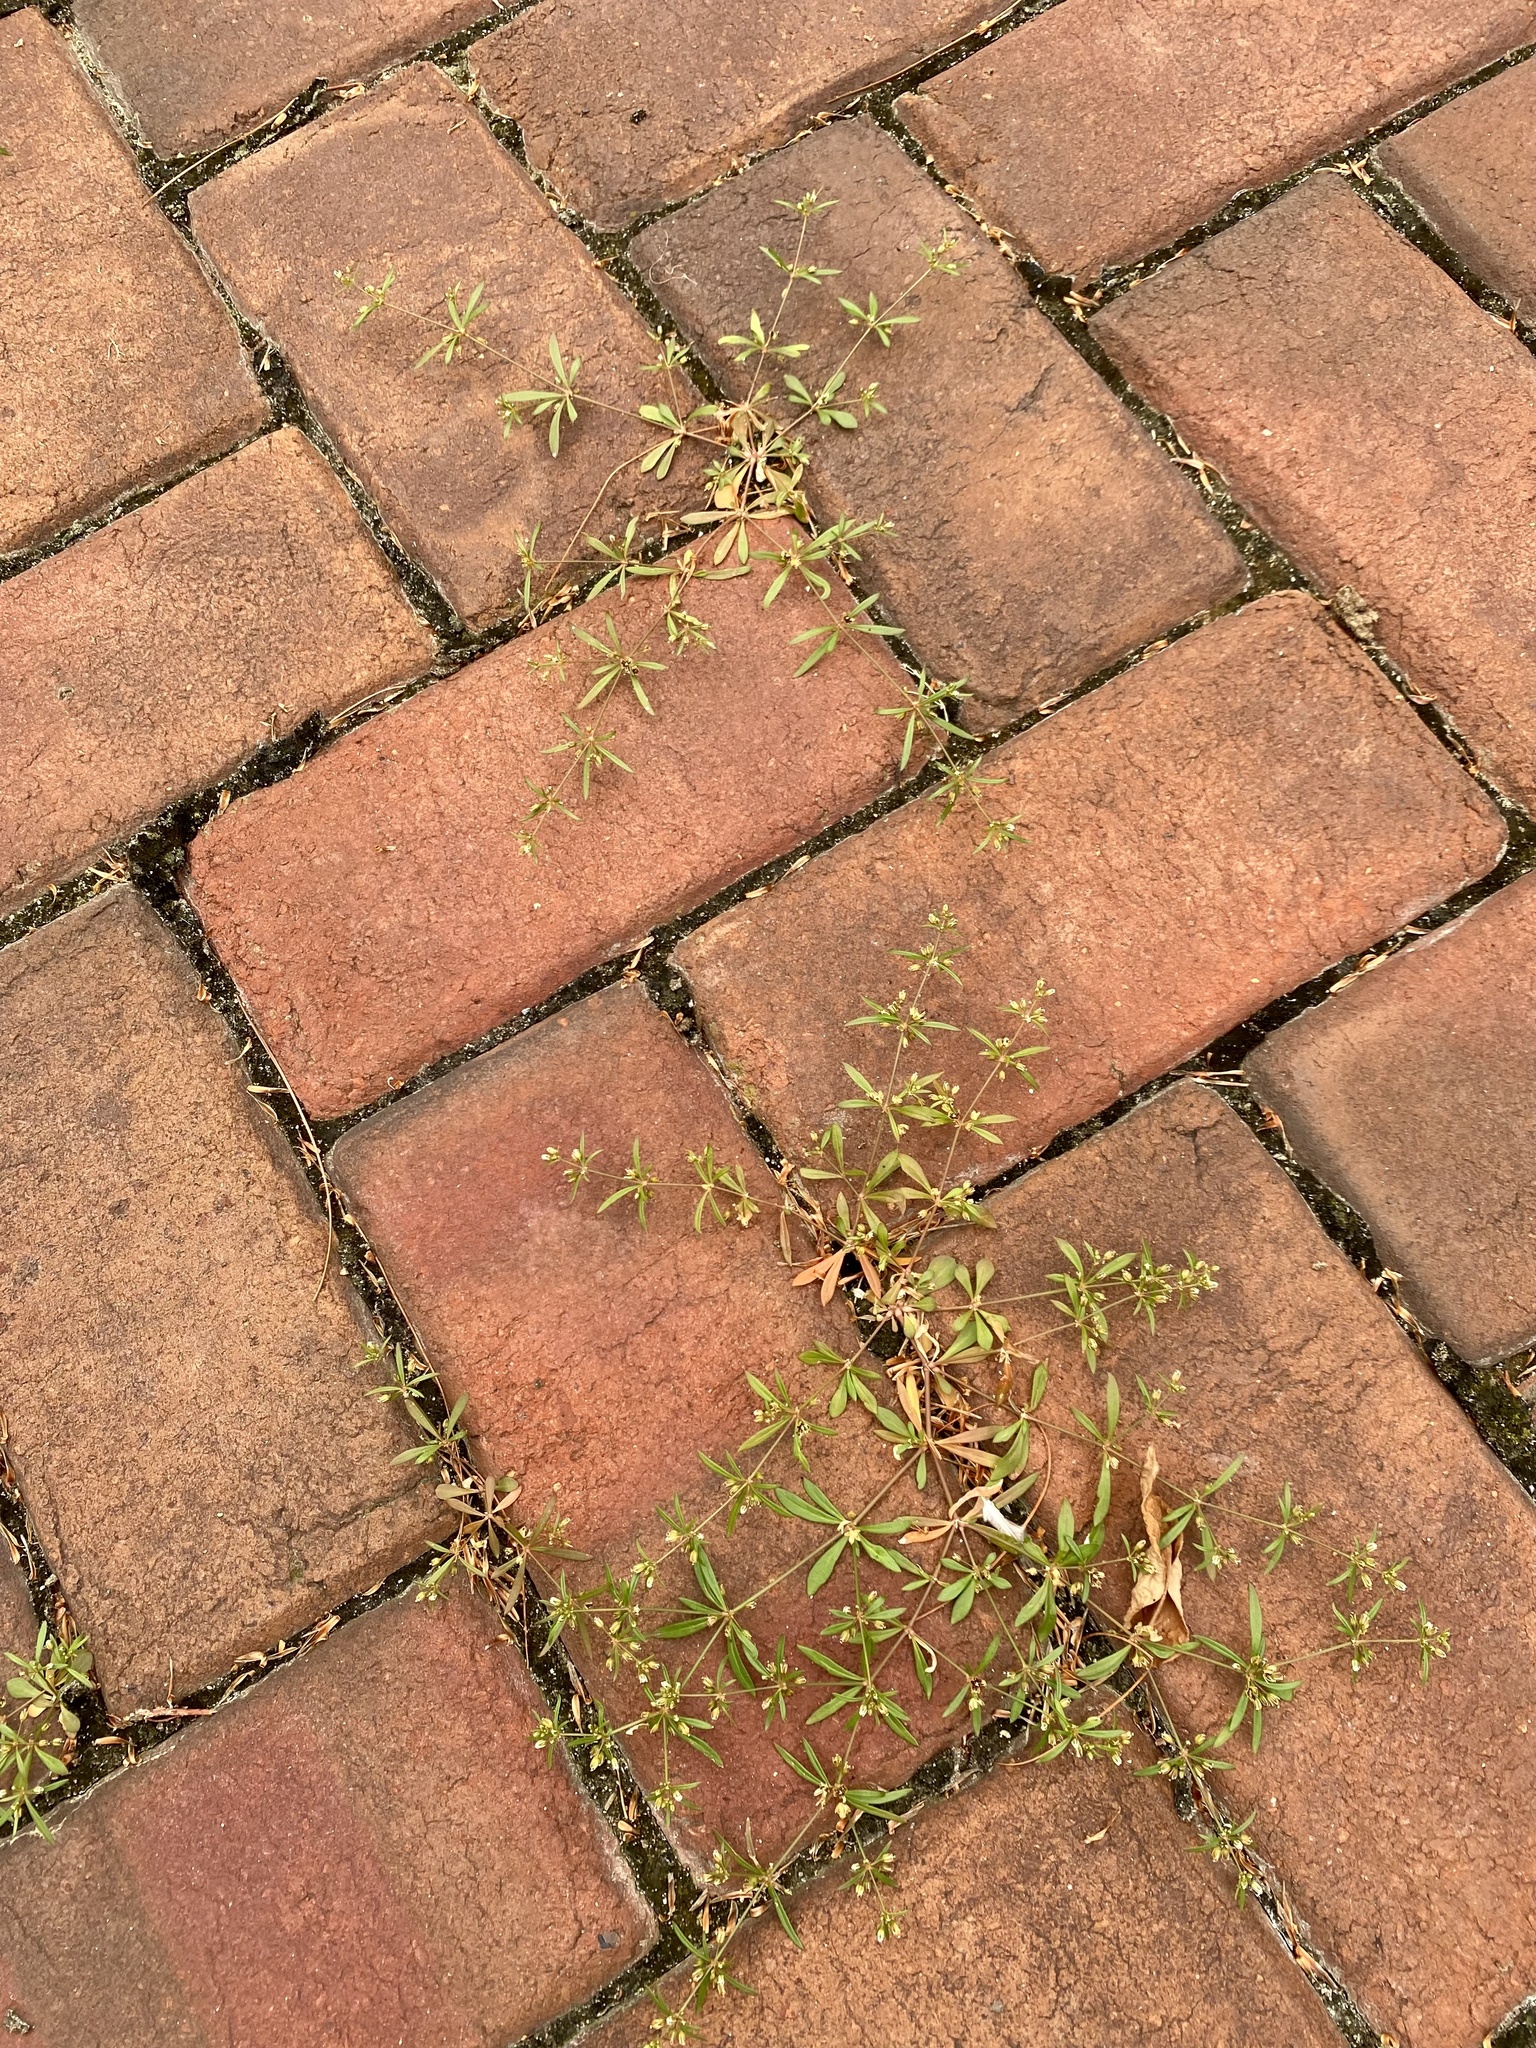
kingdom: Plantae
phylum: Tracheophyta
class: Magnoliopsida
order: Caryophyllales
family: Molluginaceae
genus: Mollugo
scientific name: Mollugo verticillata
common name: Green carpetweed
